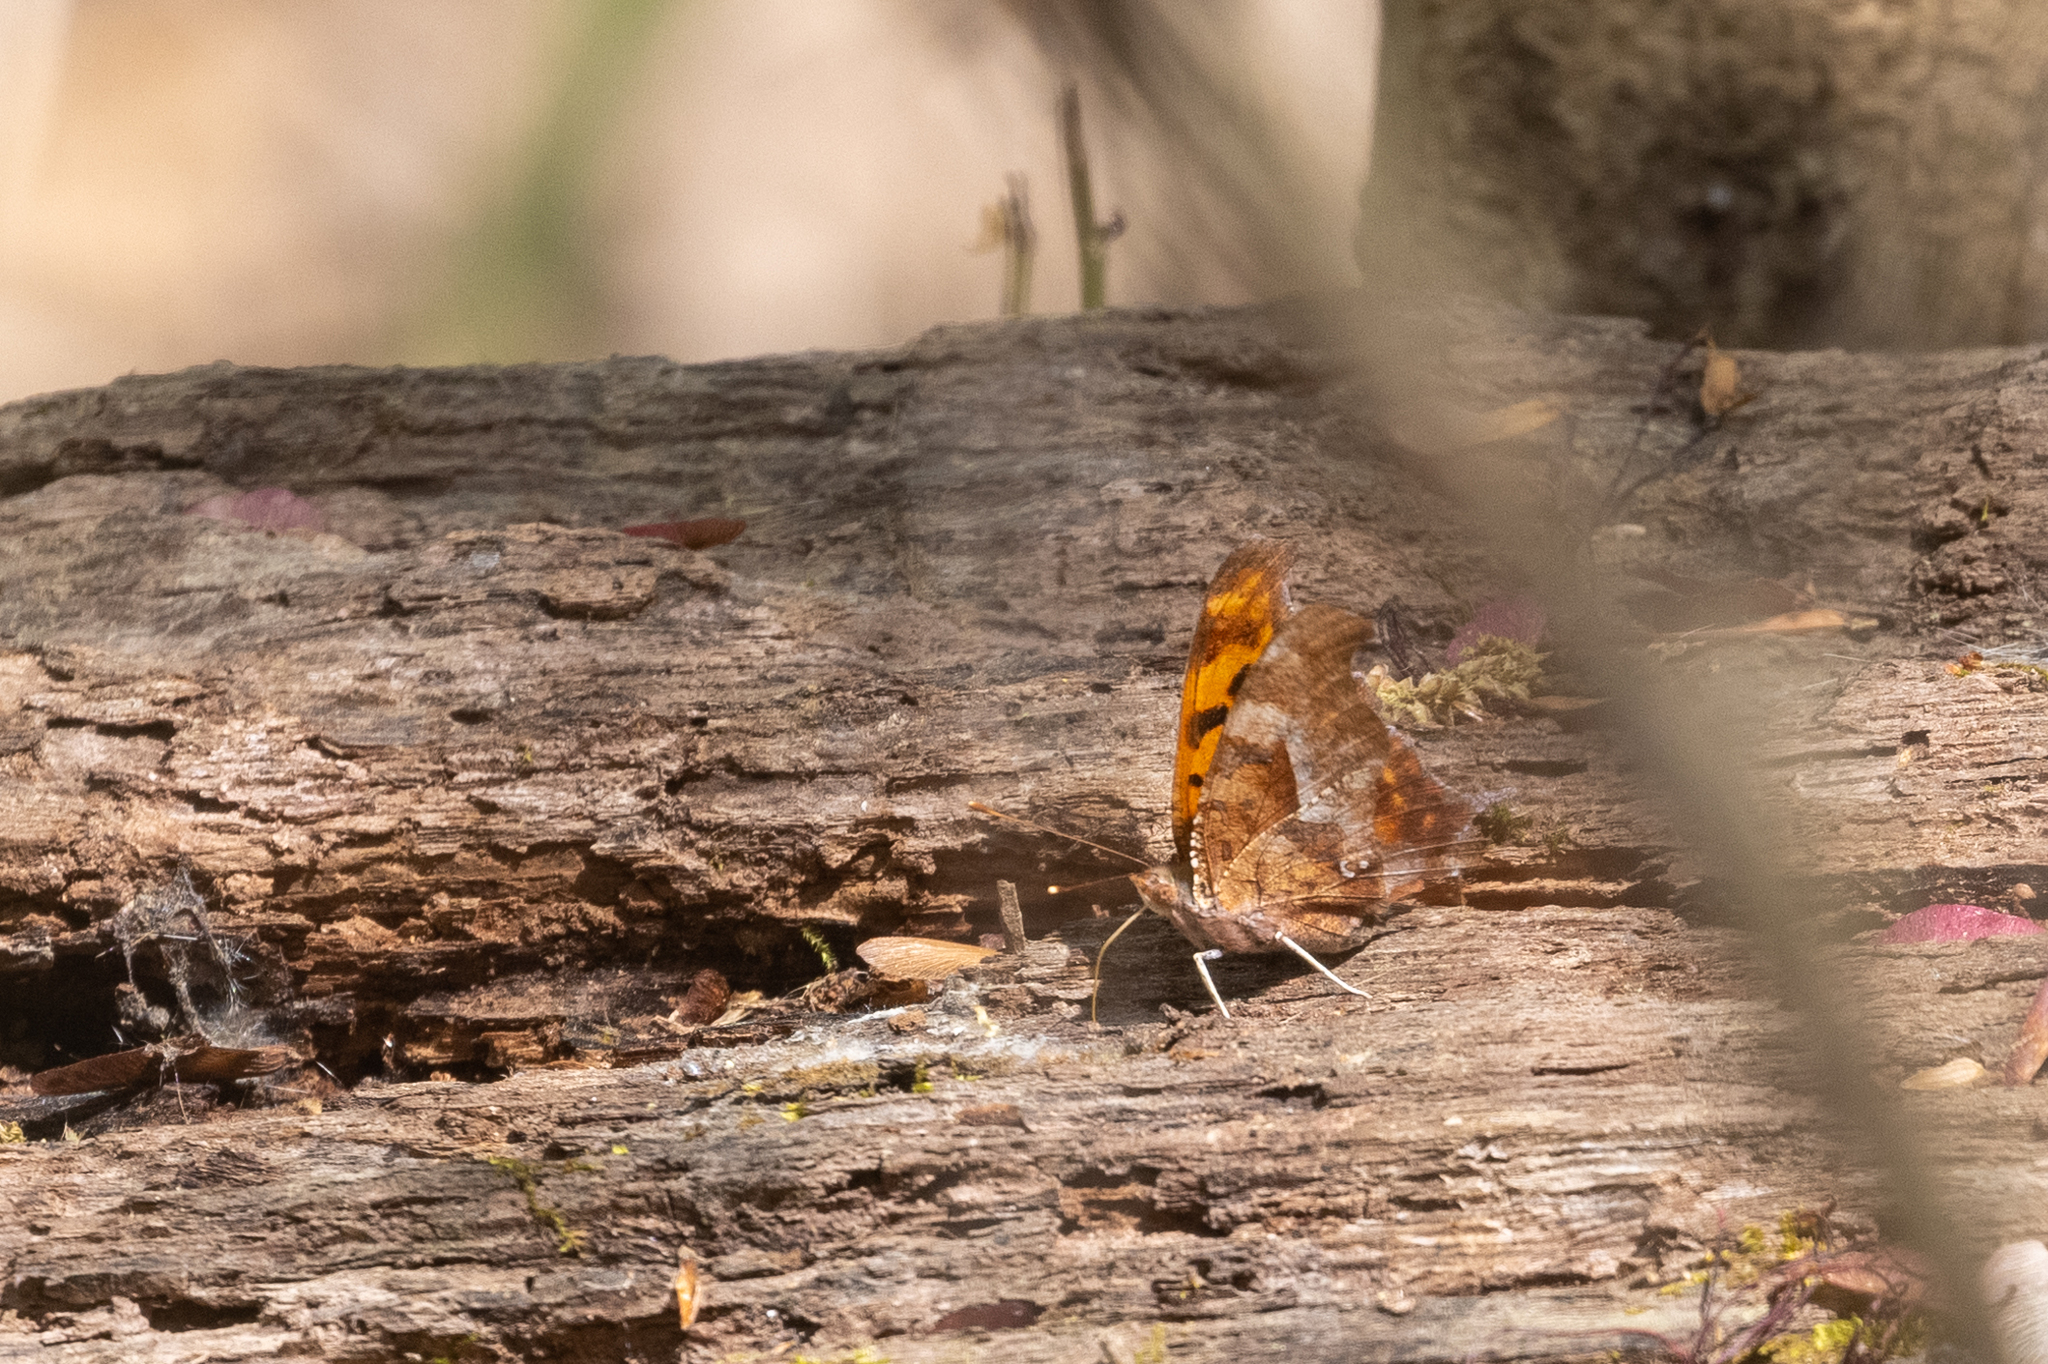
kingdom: Animalia
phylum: Arthropoda
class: Insecta
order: Lepidoptera
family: Nymphalidae
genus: Polygonia
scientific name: Polygonia interrogationis
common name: Question mark
